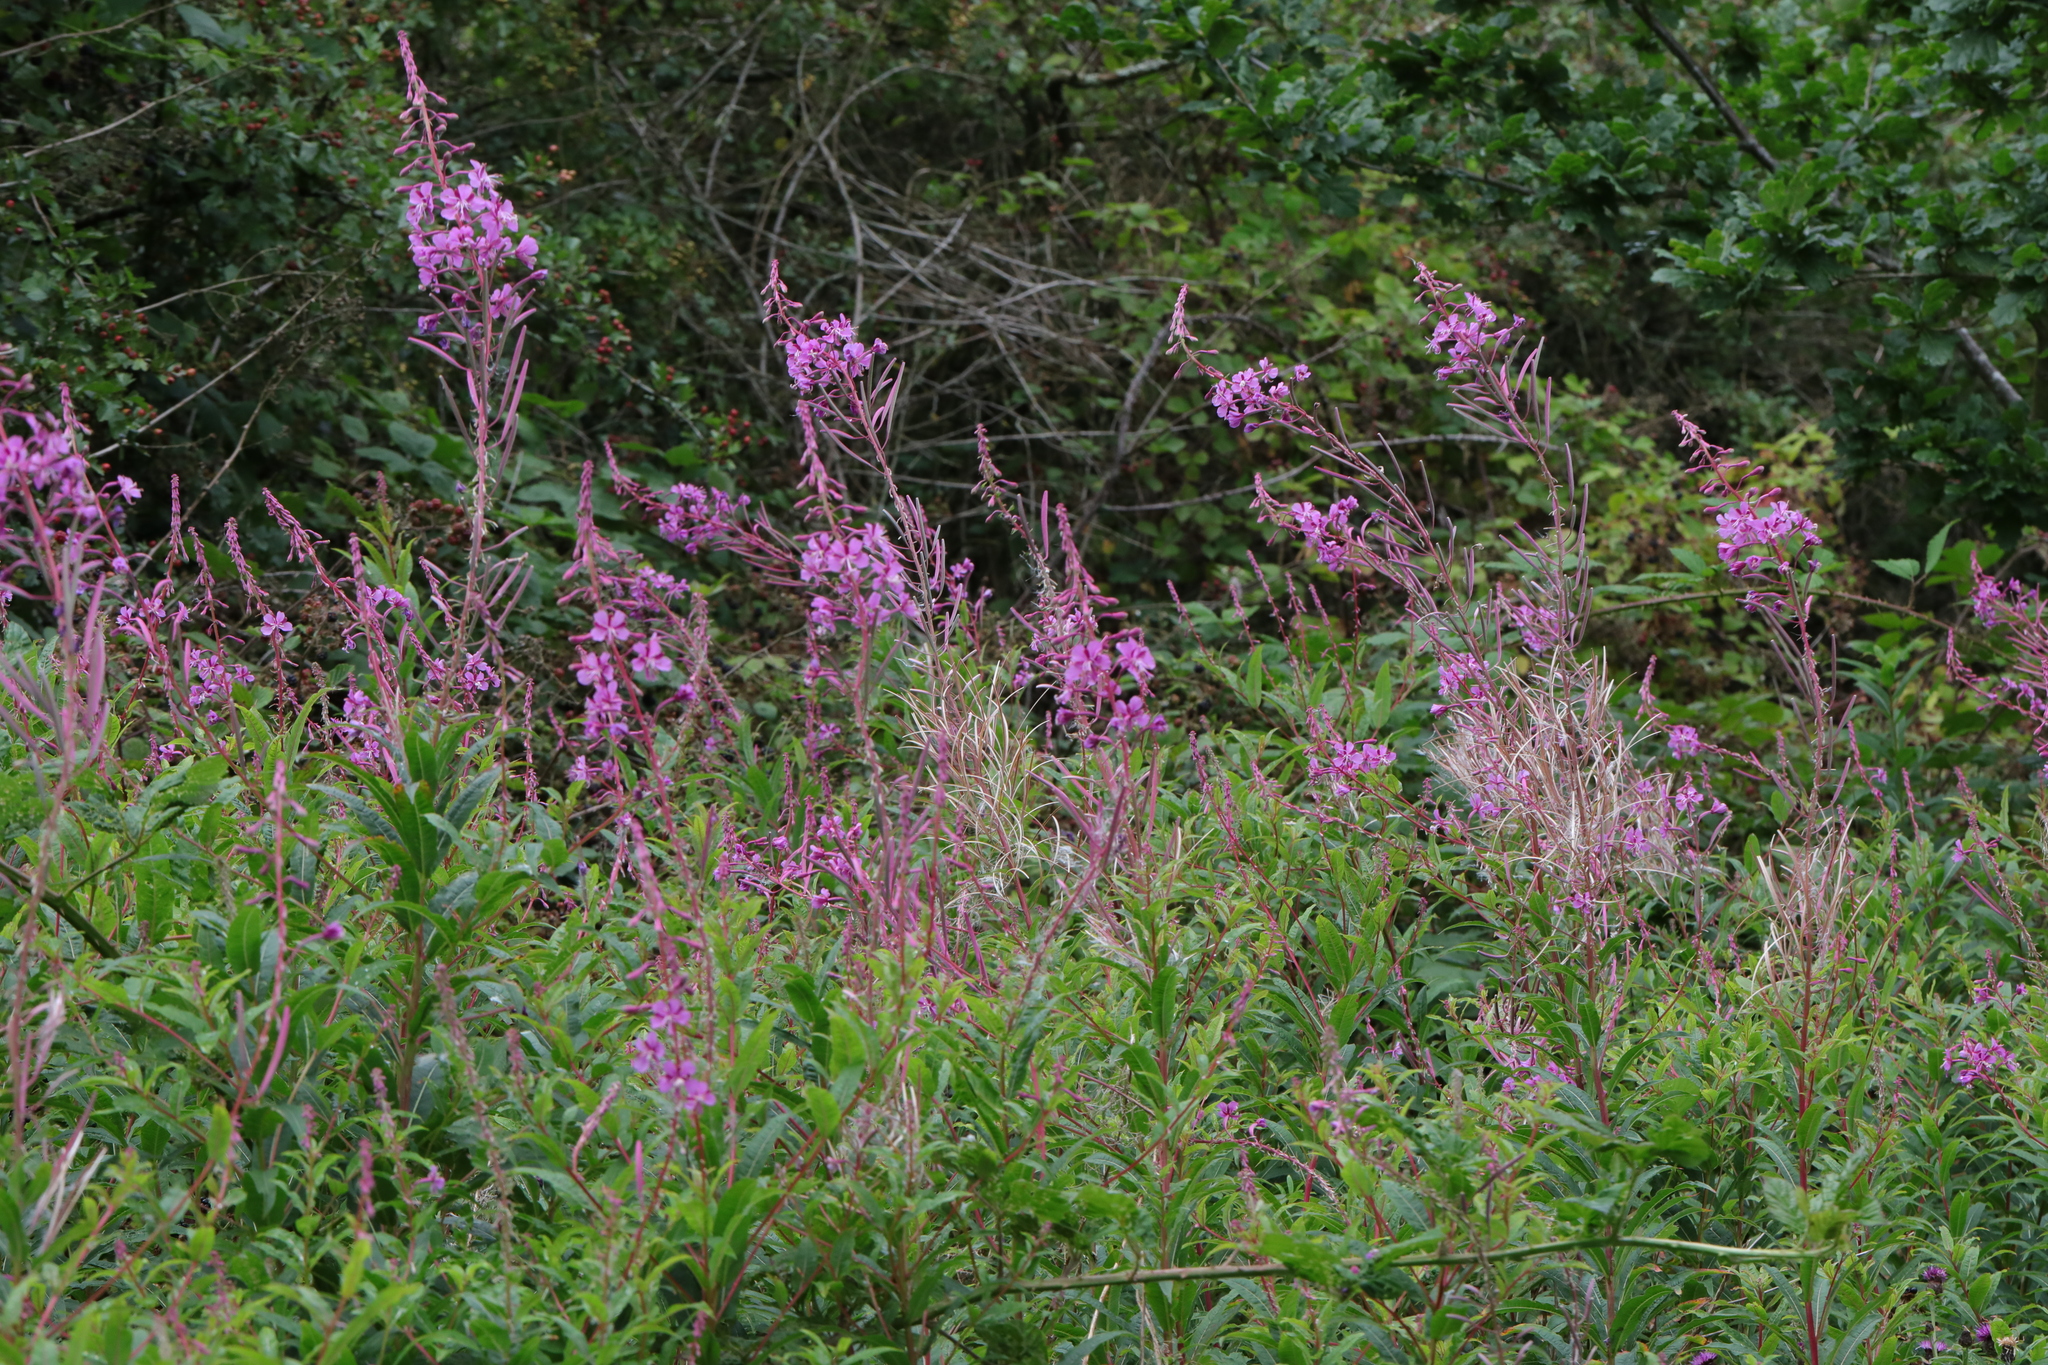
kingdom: Plantae
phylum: Tracheophyta
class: Magnoliopsida
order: Myrtales
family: Onagraceae
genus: Chamaenerion
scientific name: Chamaenerion angustifolium
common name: Fireweed
